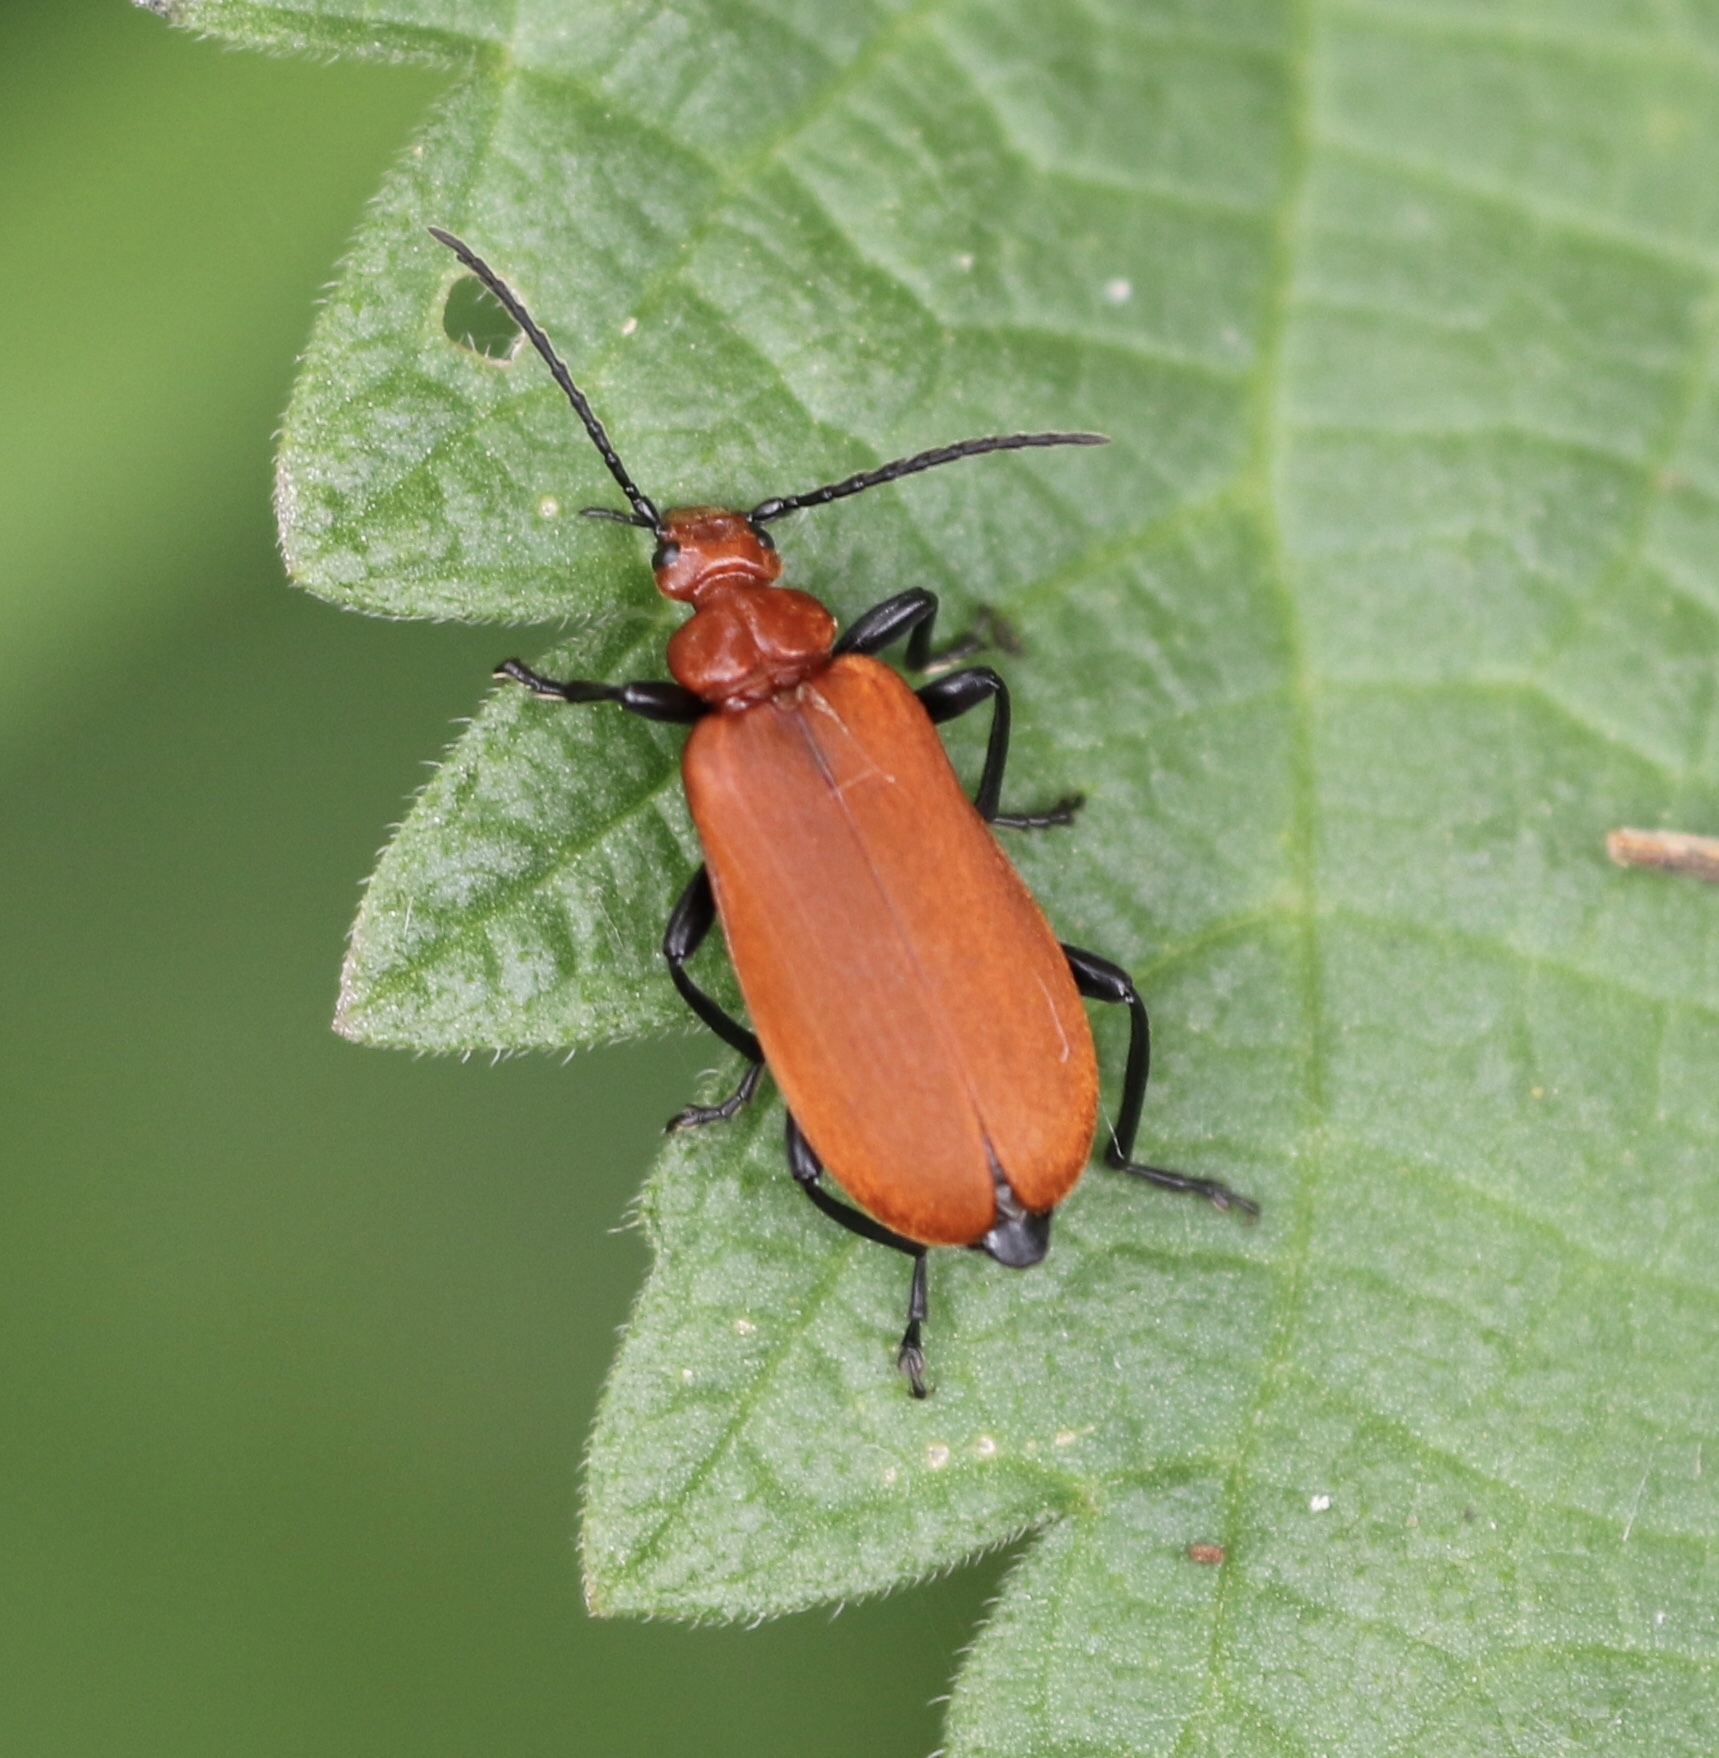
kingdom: Animalia
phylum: Arthropoda
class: Insecta
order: Coleoptera
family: Pyrochroidae
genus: Pyrochroa
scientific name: Pyrochroa serraticornis
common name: Red-headed cardinal beetle
